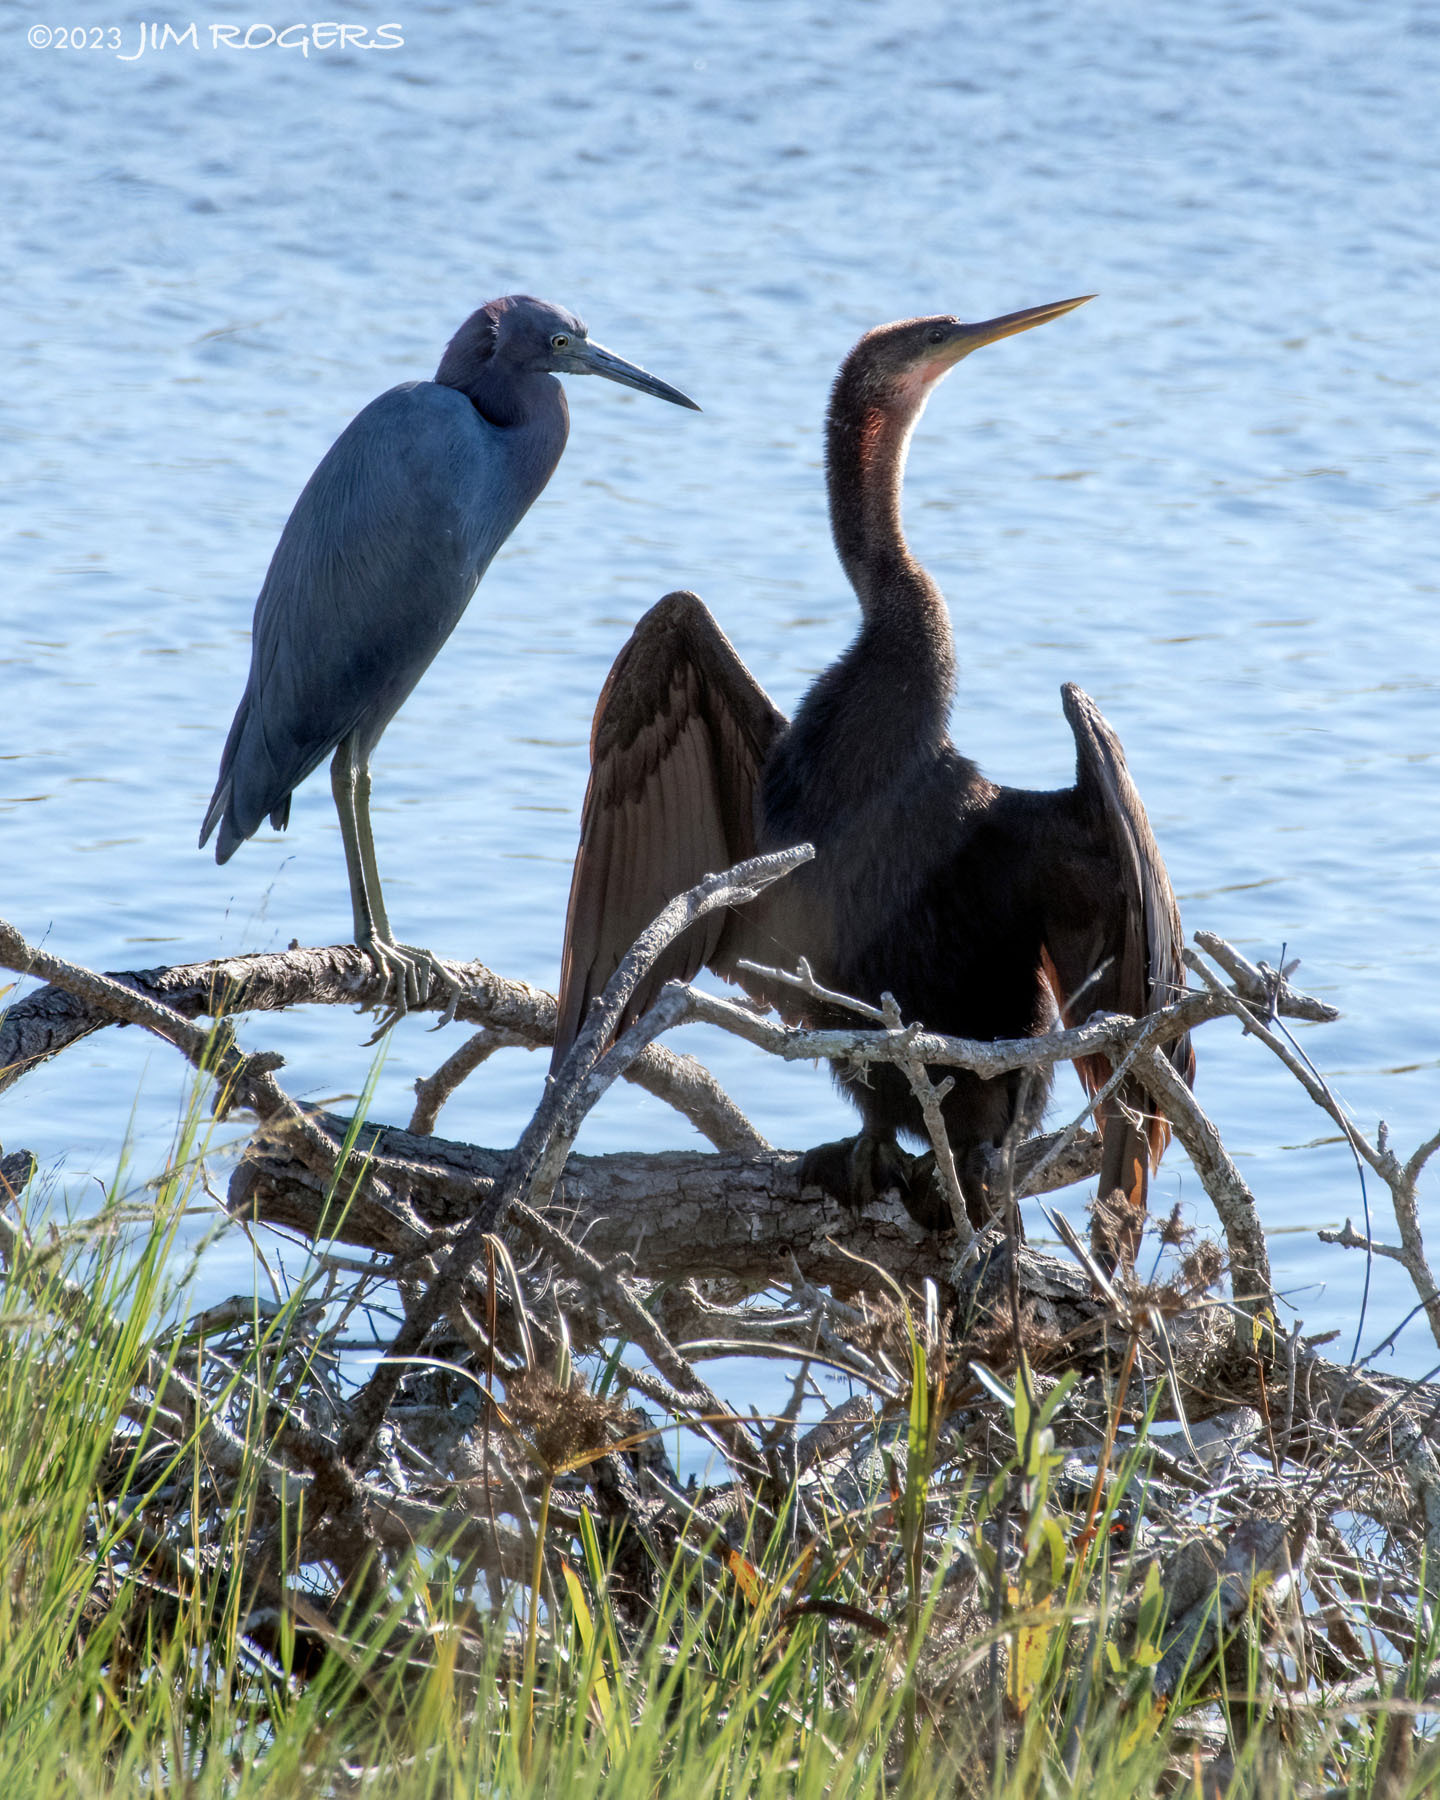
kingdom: Animalia
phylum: Chordata
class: Aves
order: Suliformes
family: Anhingidae
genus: Anhinga
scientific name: Anhinga anhinga
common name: Anhinga
